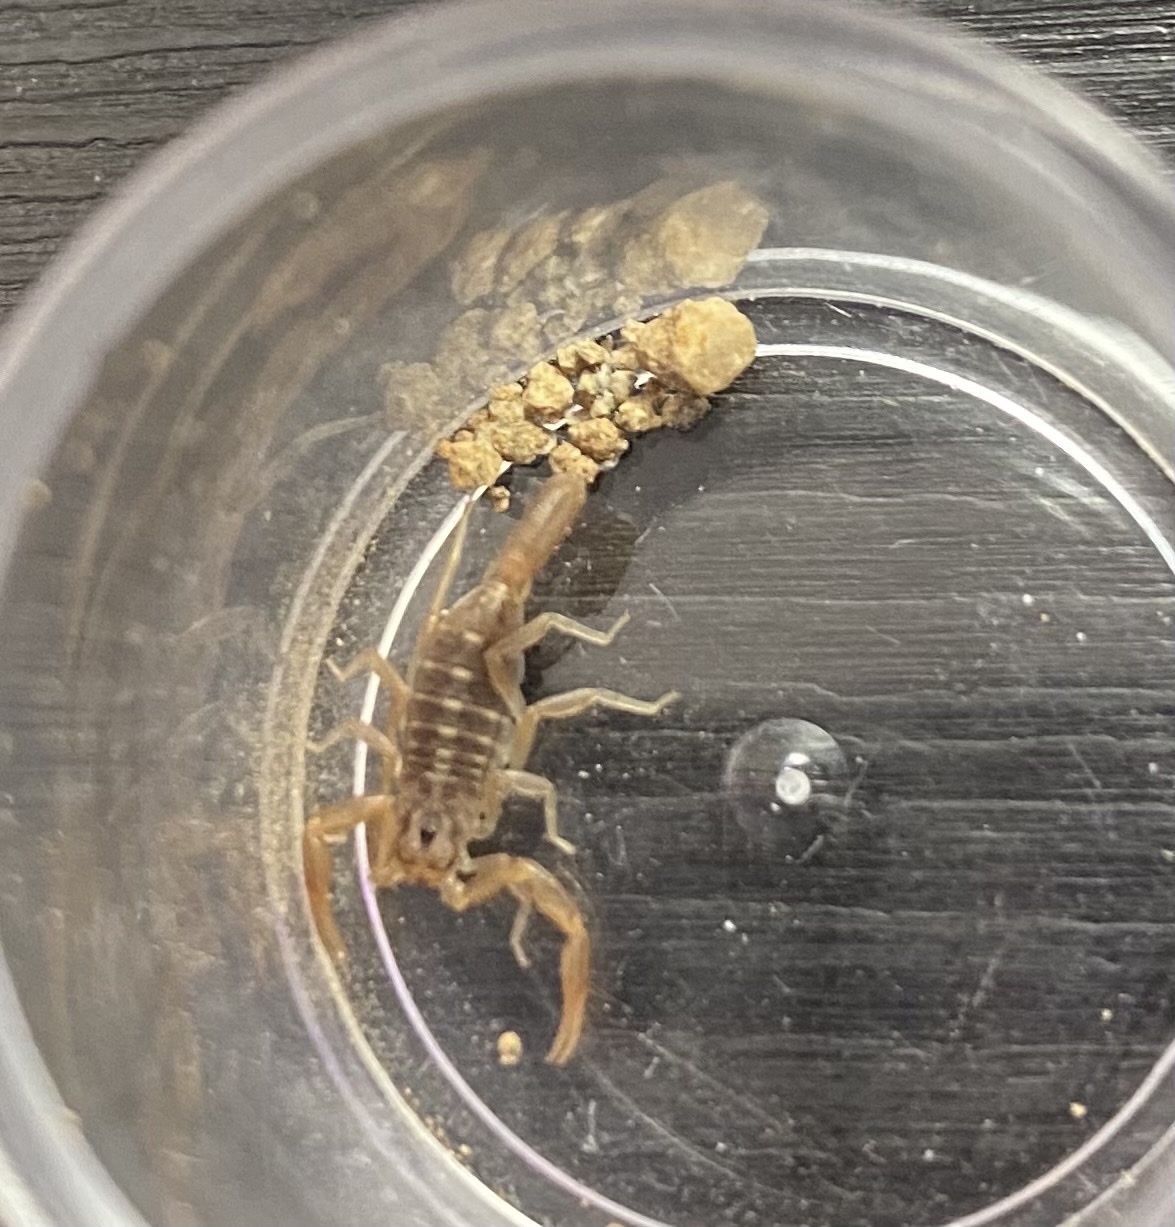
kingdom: Animalia
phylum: Arthropoda
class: Arachnida
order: Scorpiones
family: Vaejovidae
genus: Paravaejovis
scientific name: Paravaejovis spinigerus
